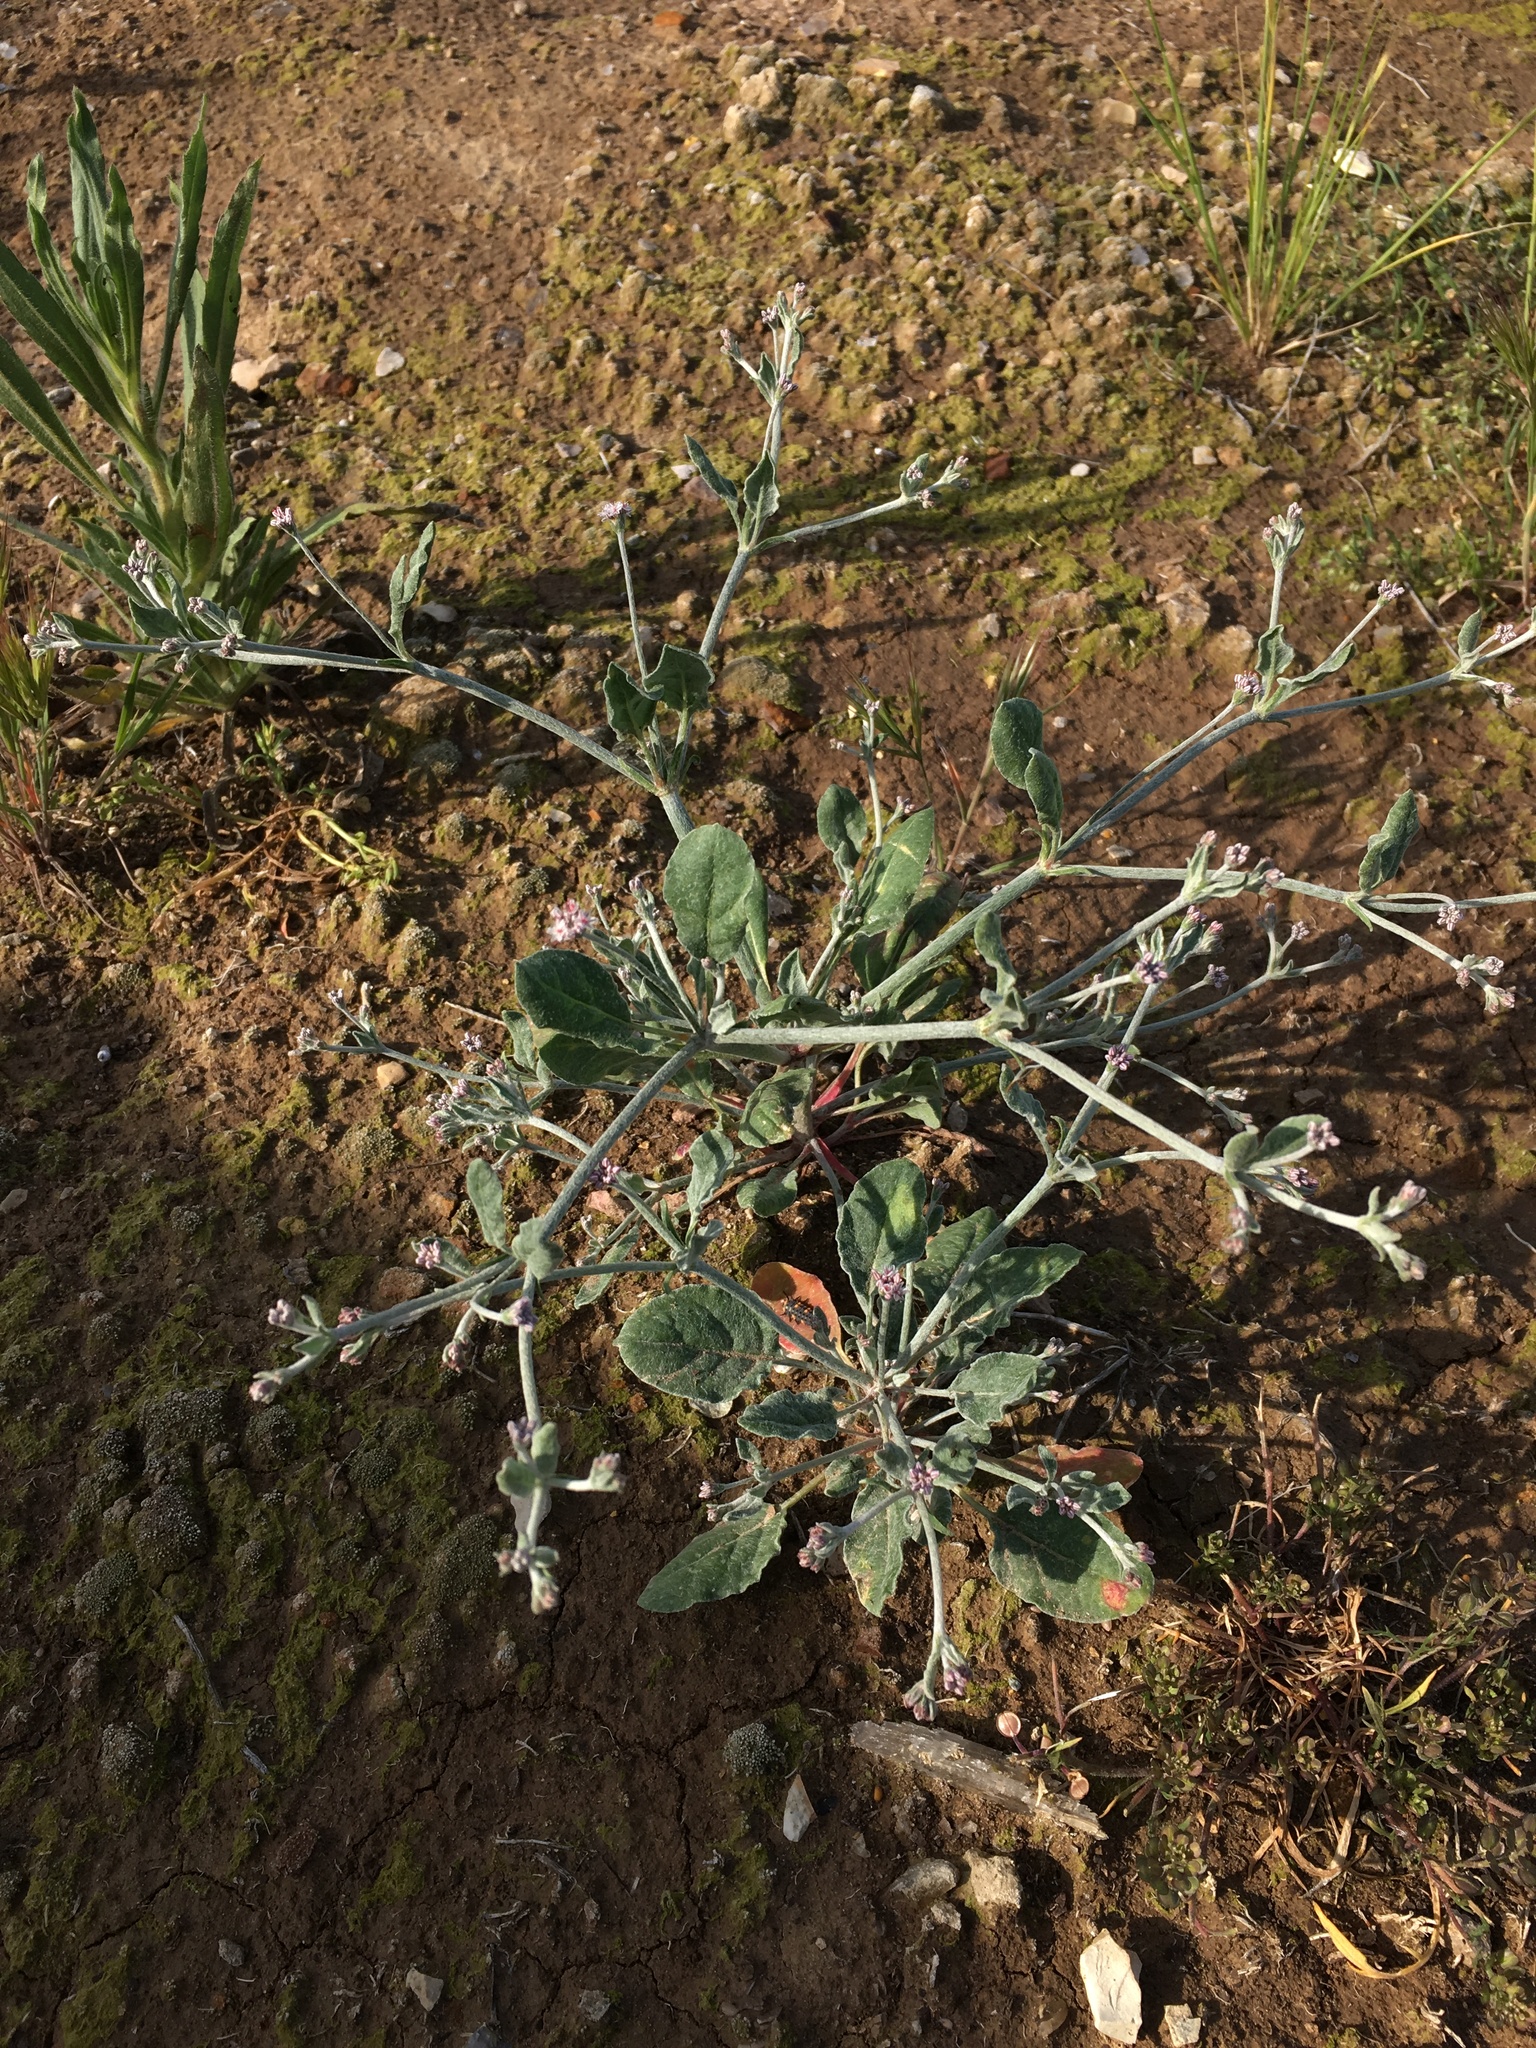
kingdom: Plantae
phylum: Tracheophyta
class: Magnoliopsida
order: Caryophyllales
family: Polygonaceae
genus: Eriogonum
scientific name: Eriogonum vestitum
